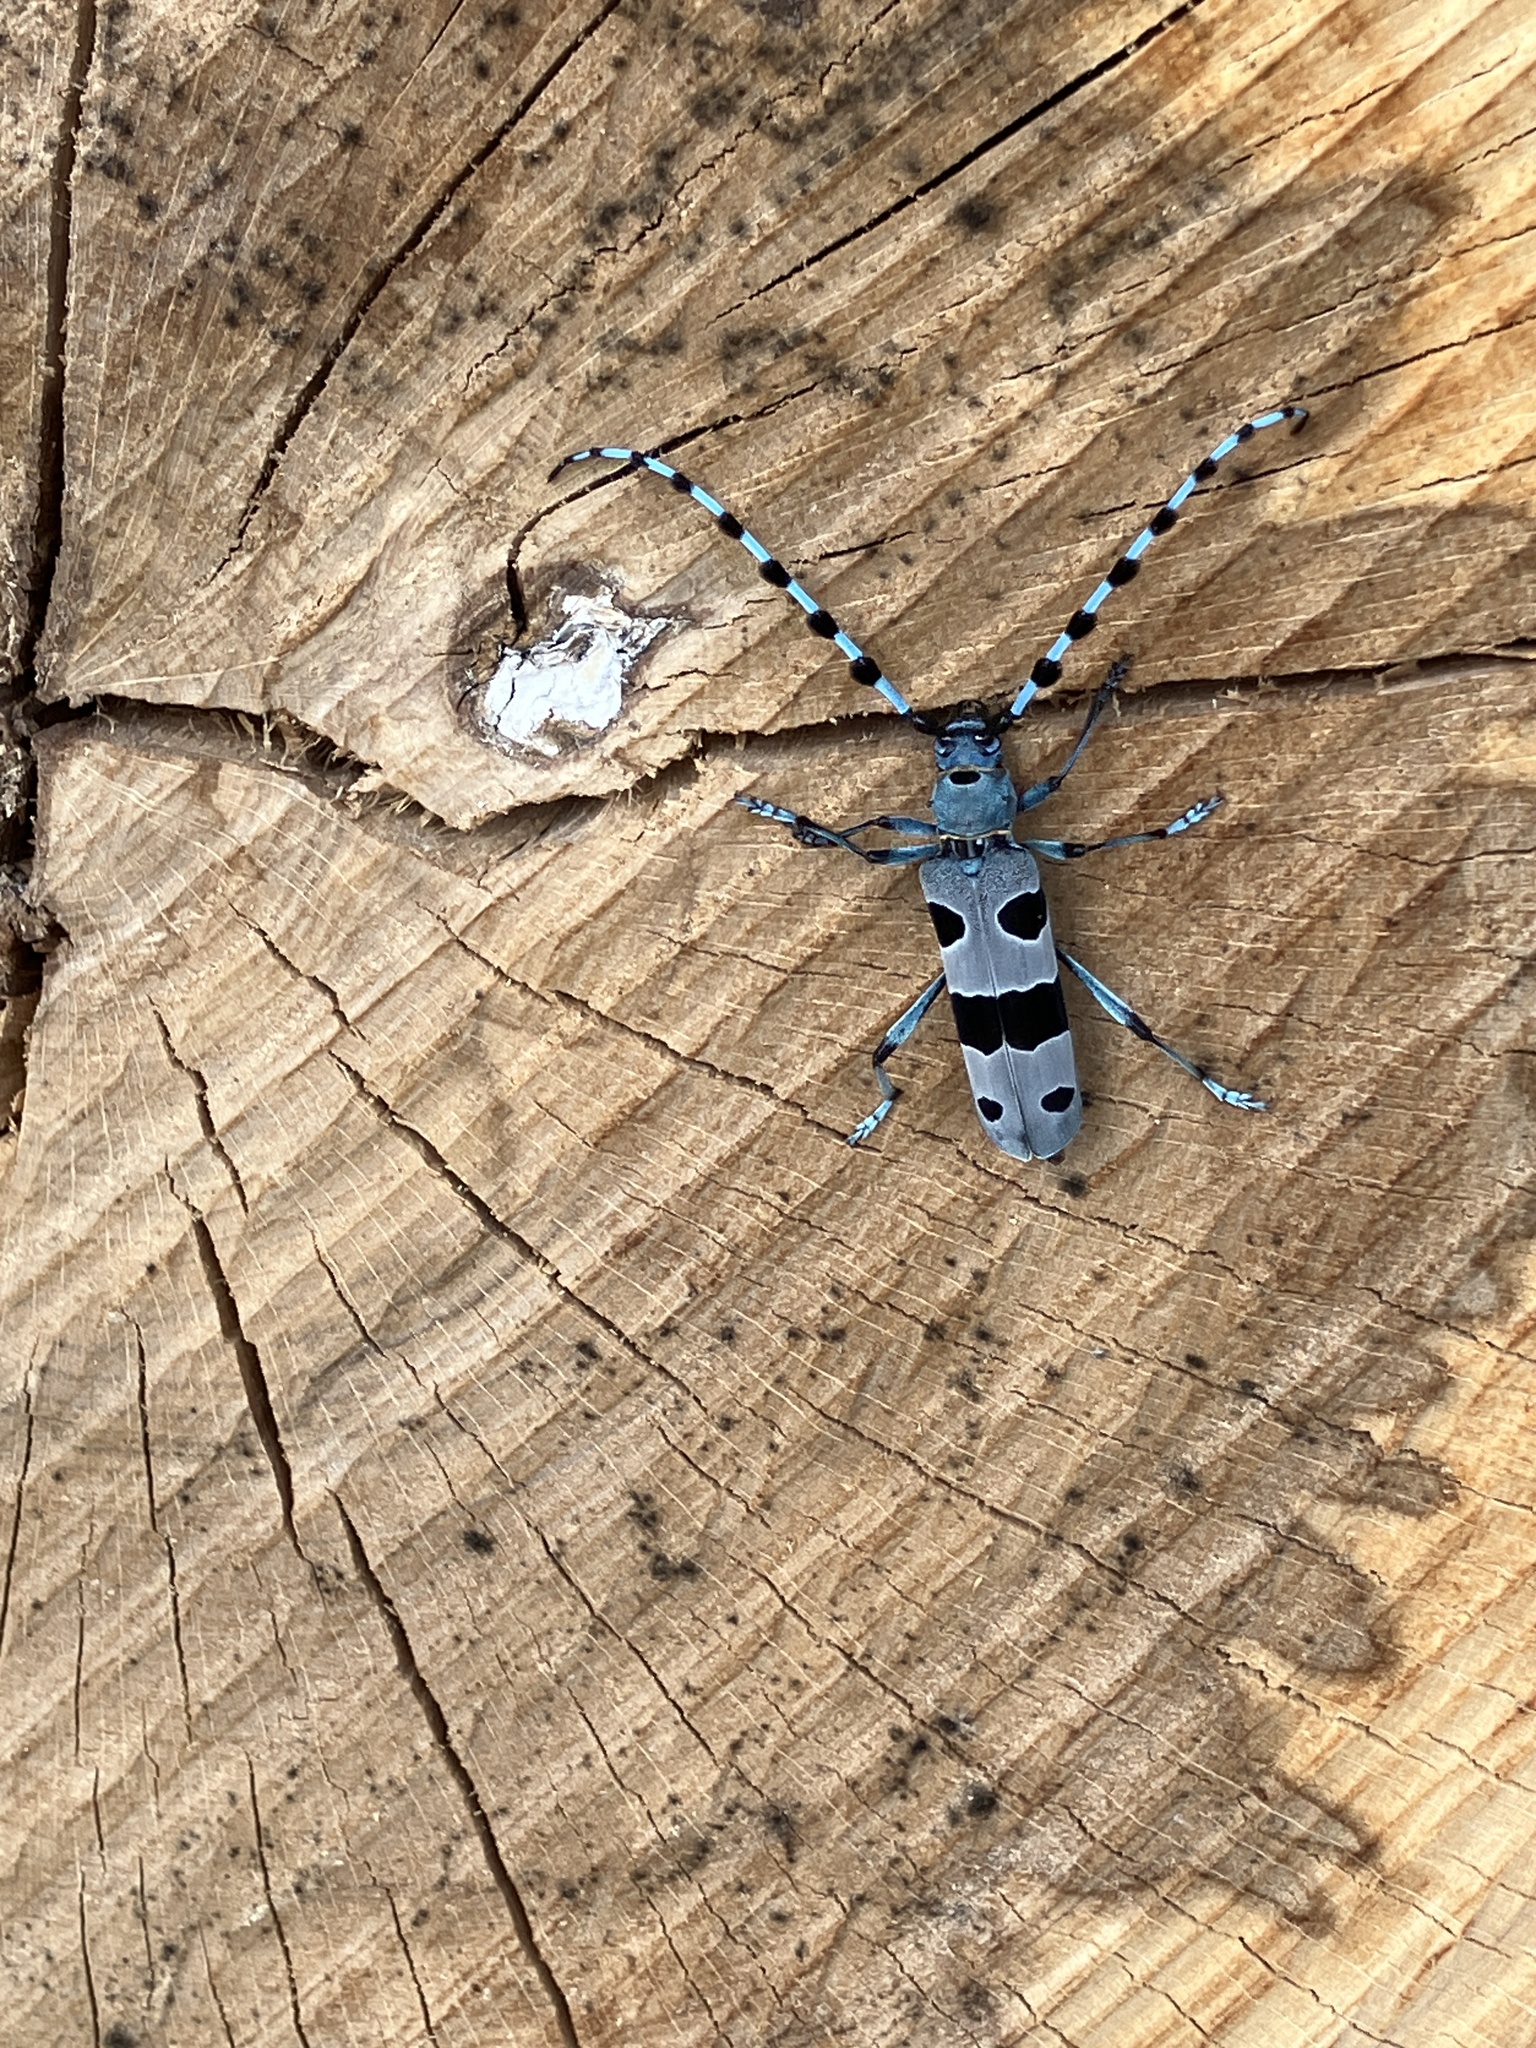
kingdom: Animalia
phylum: Arthropoda
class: Insecta
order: Coleoptera
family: Cerambycidae
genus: Rosalia
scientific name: Rosalia alpina
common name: Rosalia longicorn
